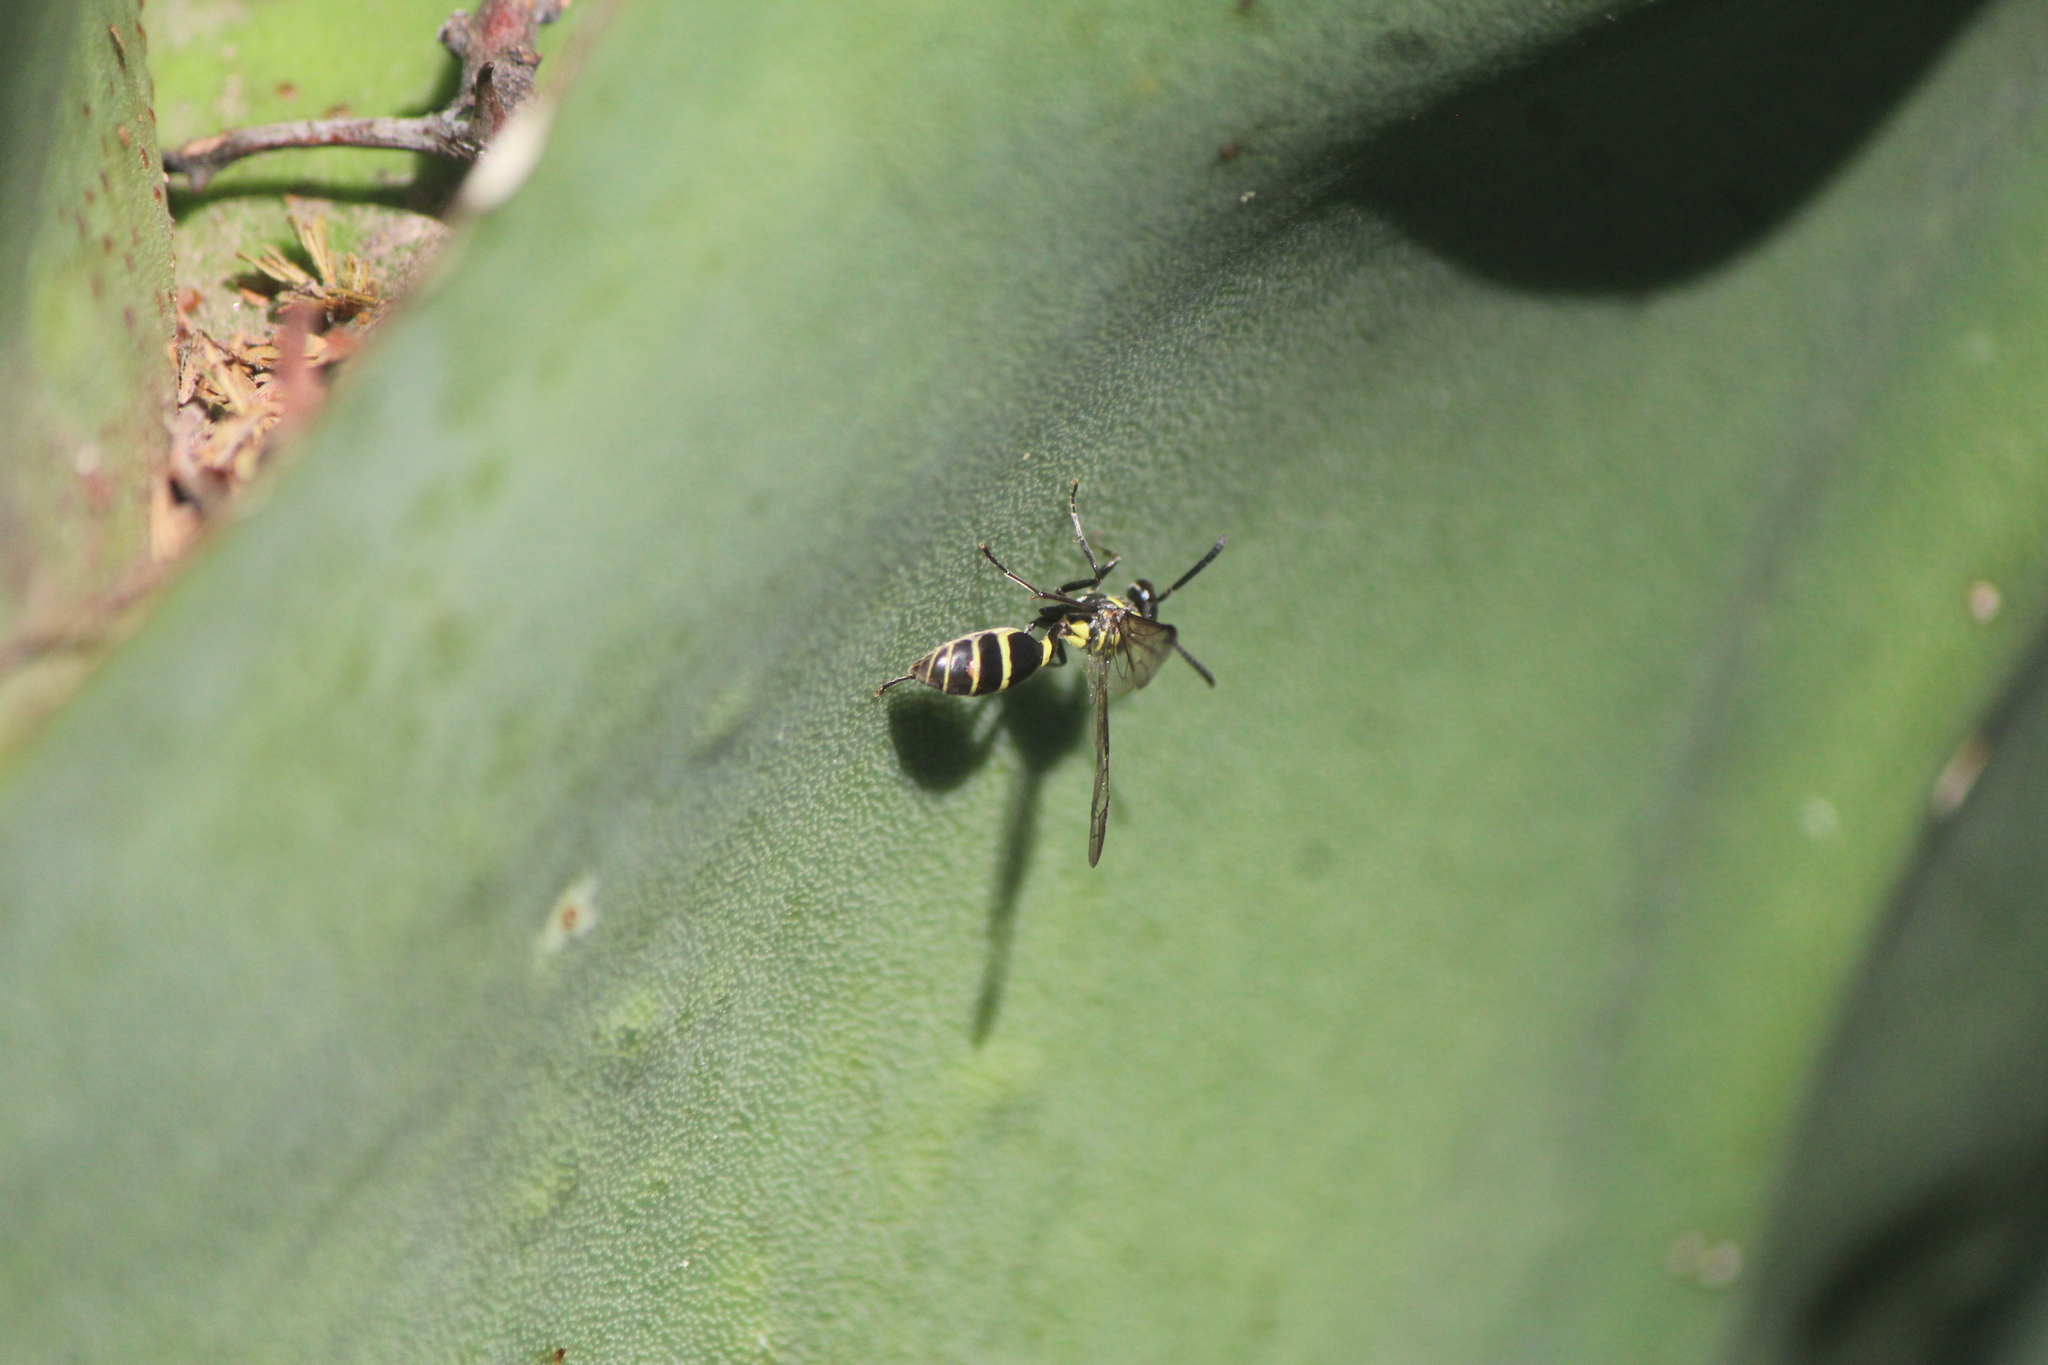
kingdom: Animalia
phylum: Arthropoda
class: Insecta
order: Hymenoptera
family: Eumenidae
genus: Polybia
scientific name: Polybia occidentalis
